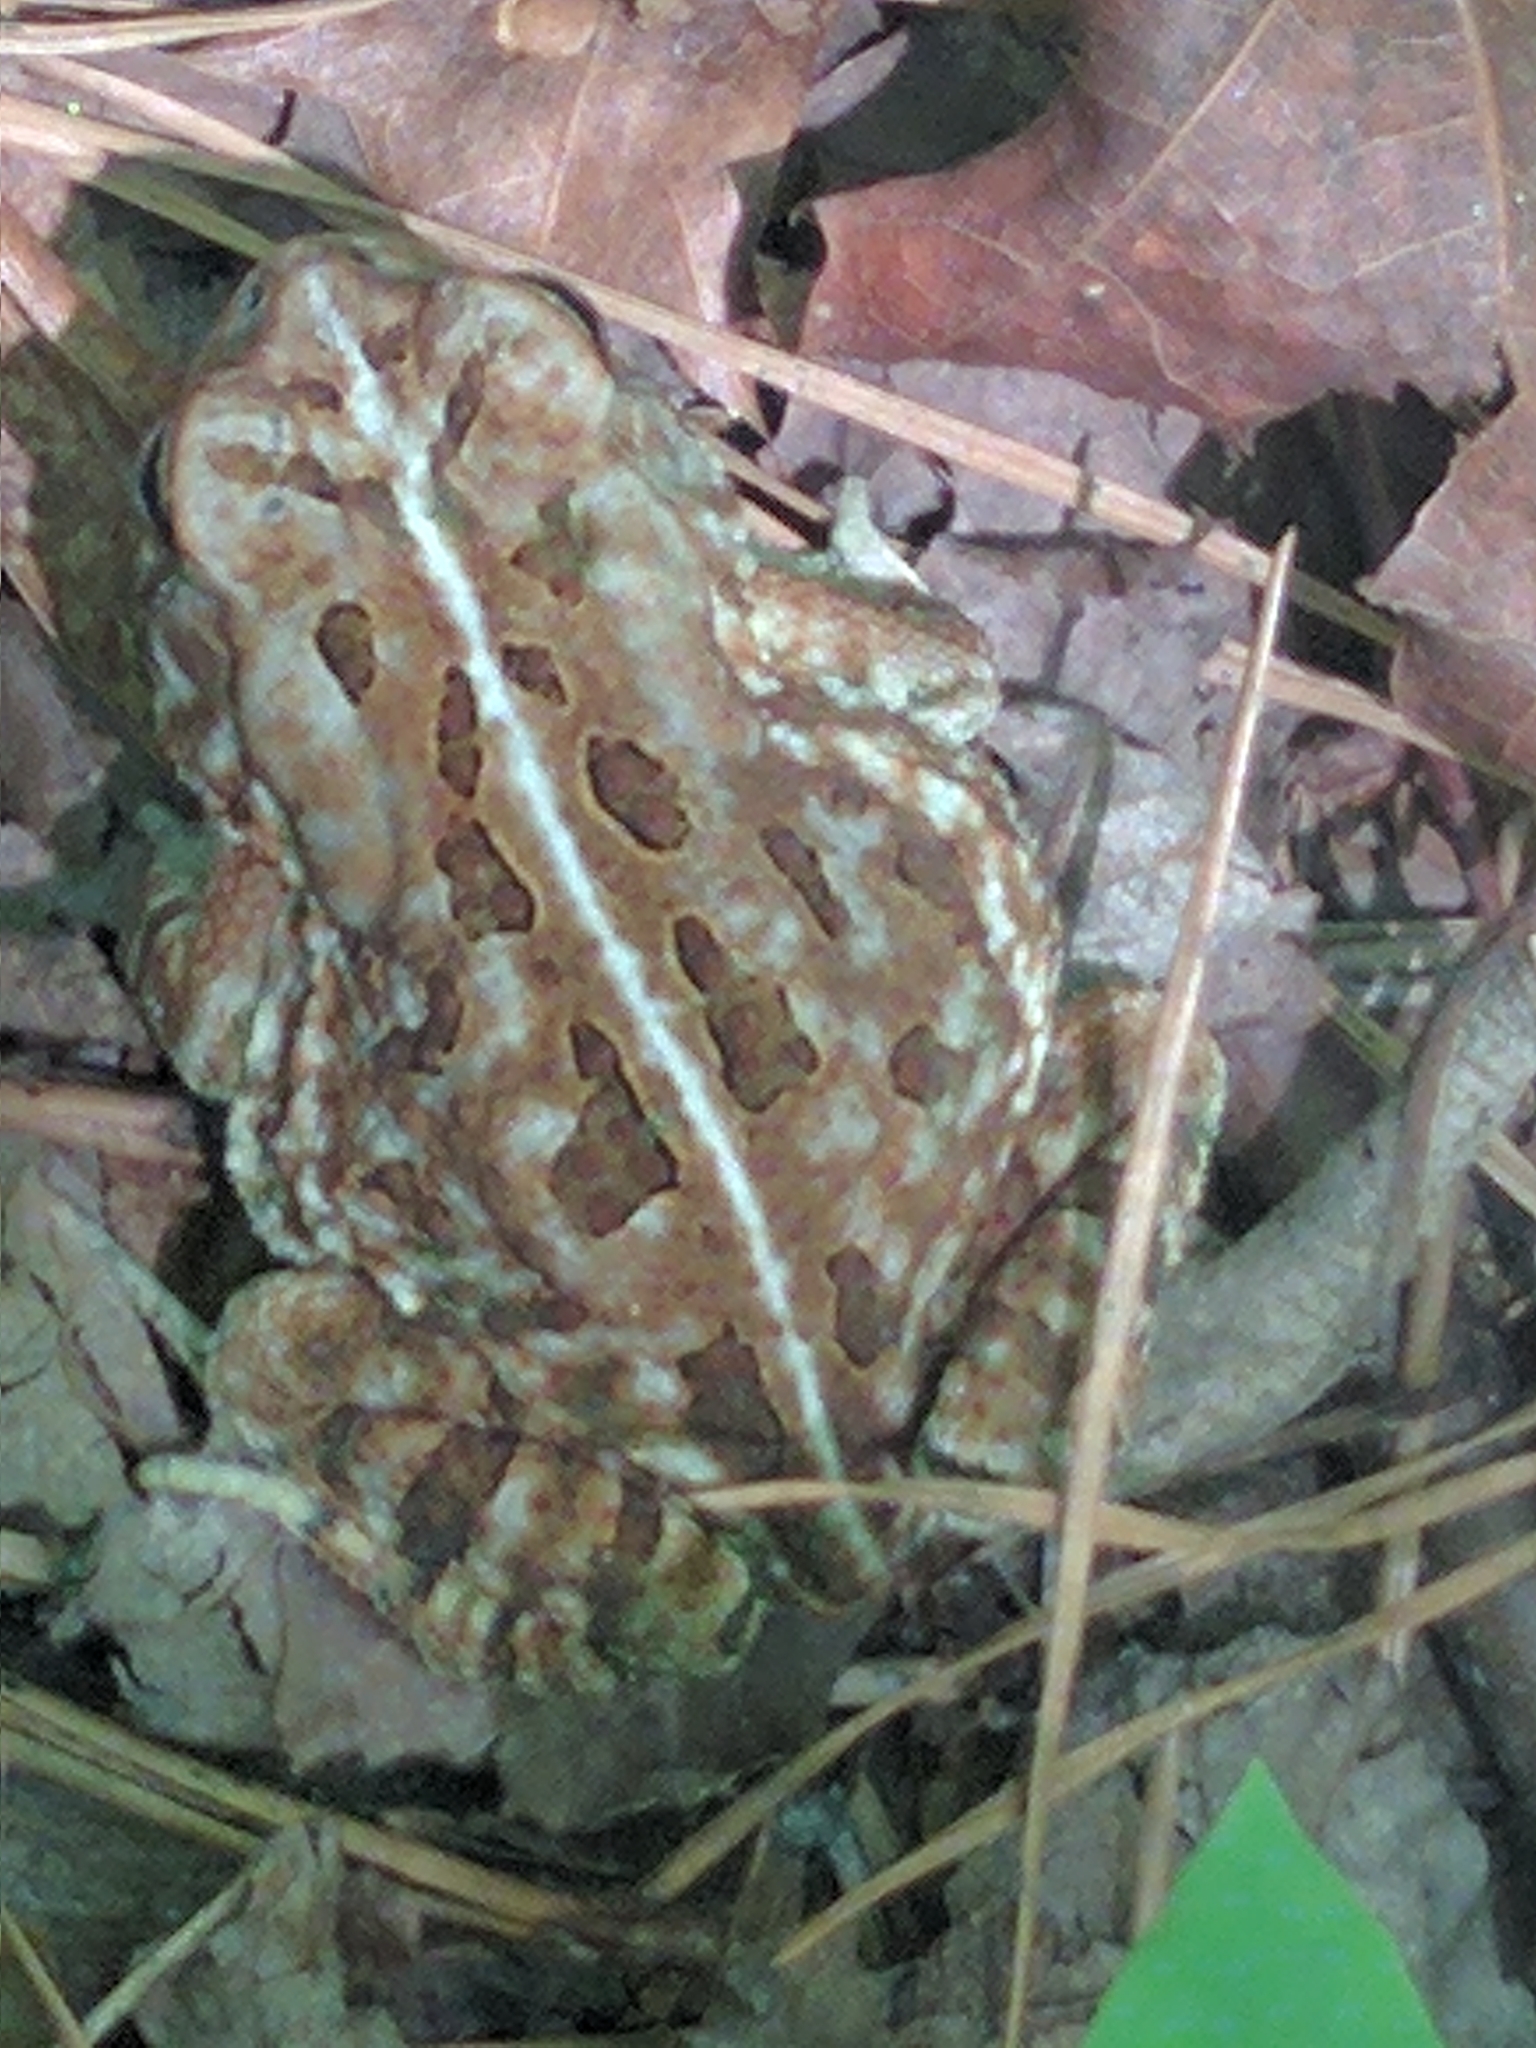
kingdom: Animalia
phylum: Chordata
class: Amphibia
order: Anura
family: Bufonidae
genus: Anaxyrus
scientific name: Anaxyrus fowleri
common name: Fowler's toad
